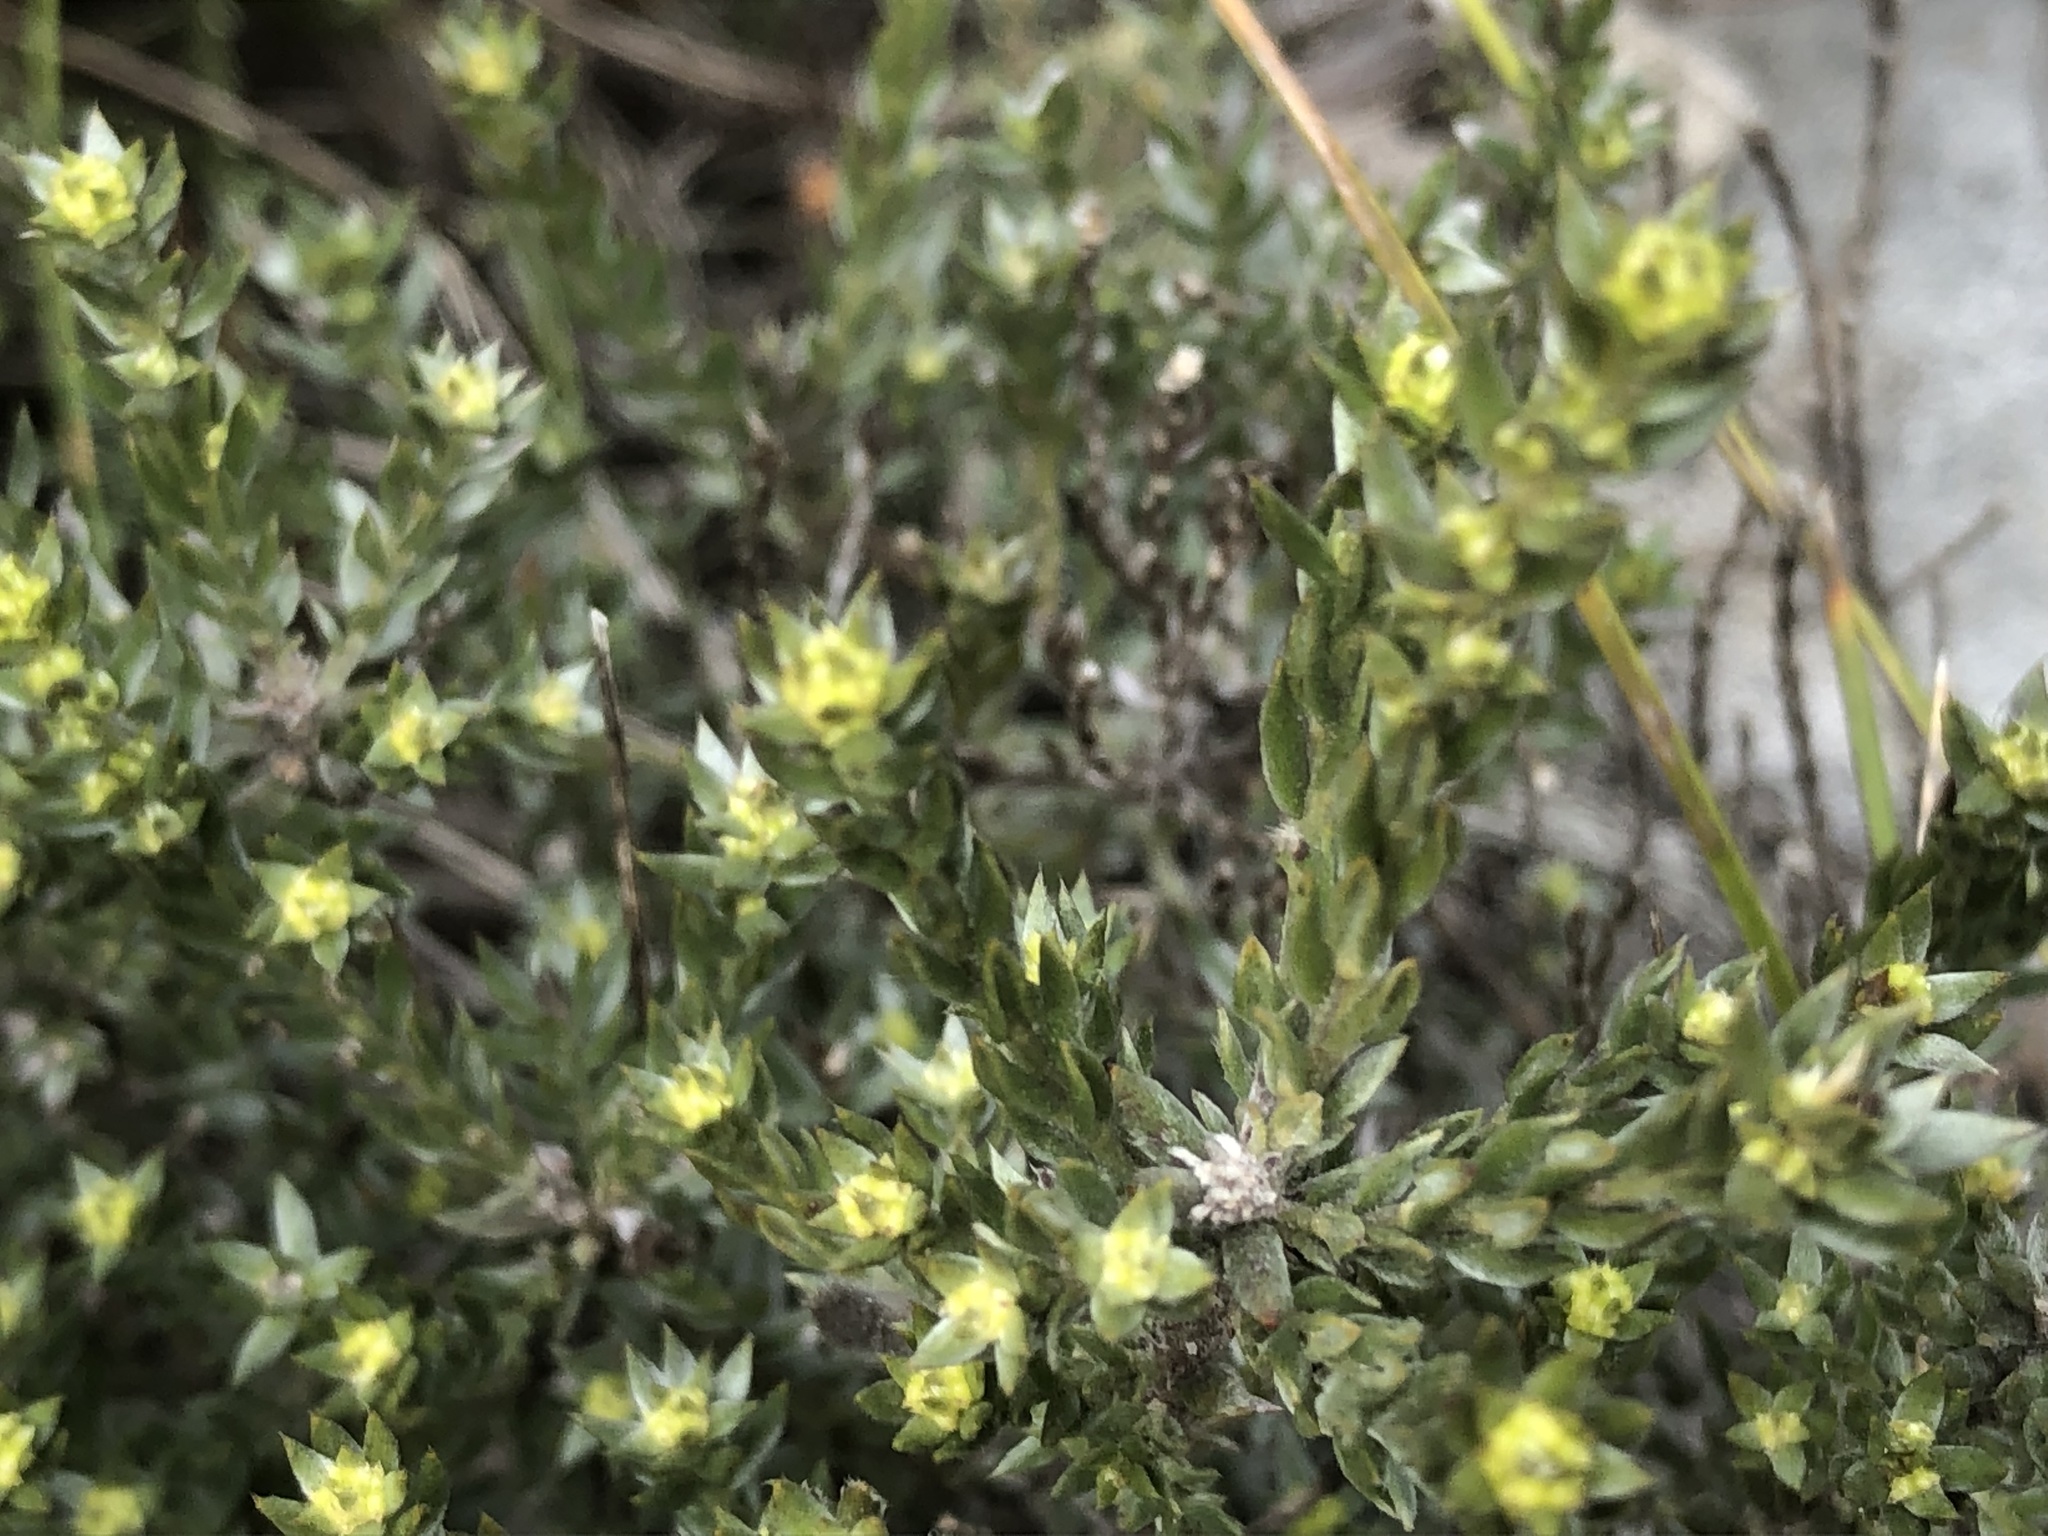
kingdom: Plantae
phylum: Tracheophyta
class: Magnoliopsida
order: Fabales
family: Fabaceae
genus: Amphithalea
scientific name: Amphithalea ericifolia
